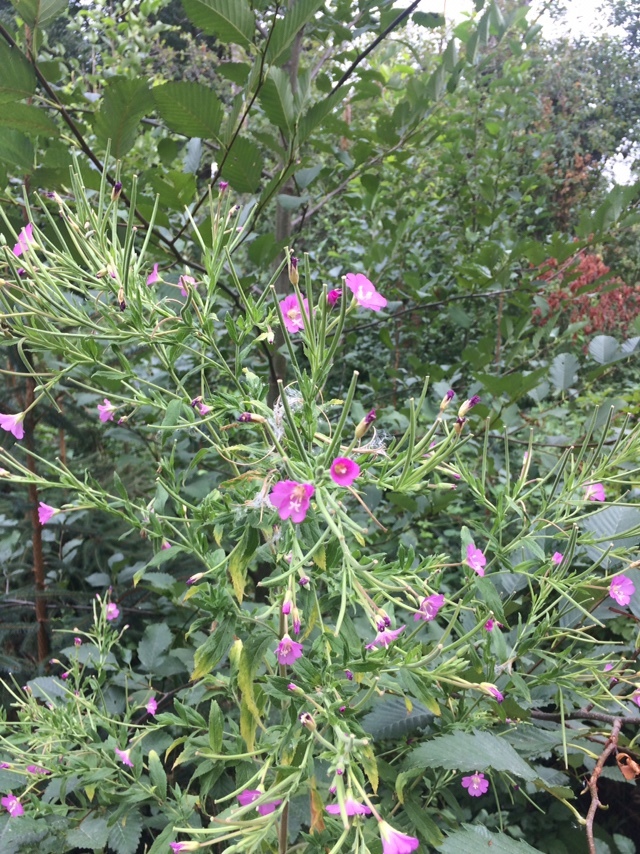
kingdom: Plantae
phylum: Tracheophyta
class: Magnoliopsida
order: Myrtales
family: Onagraceae
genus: Epilobium
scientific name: Epilobium hirsutum
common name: Great willowherb
